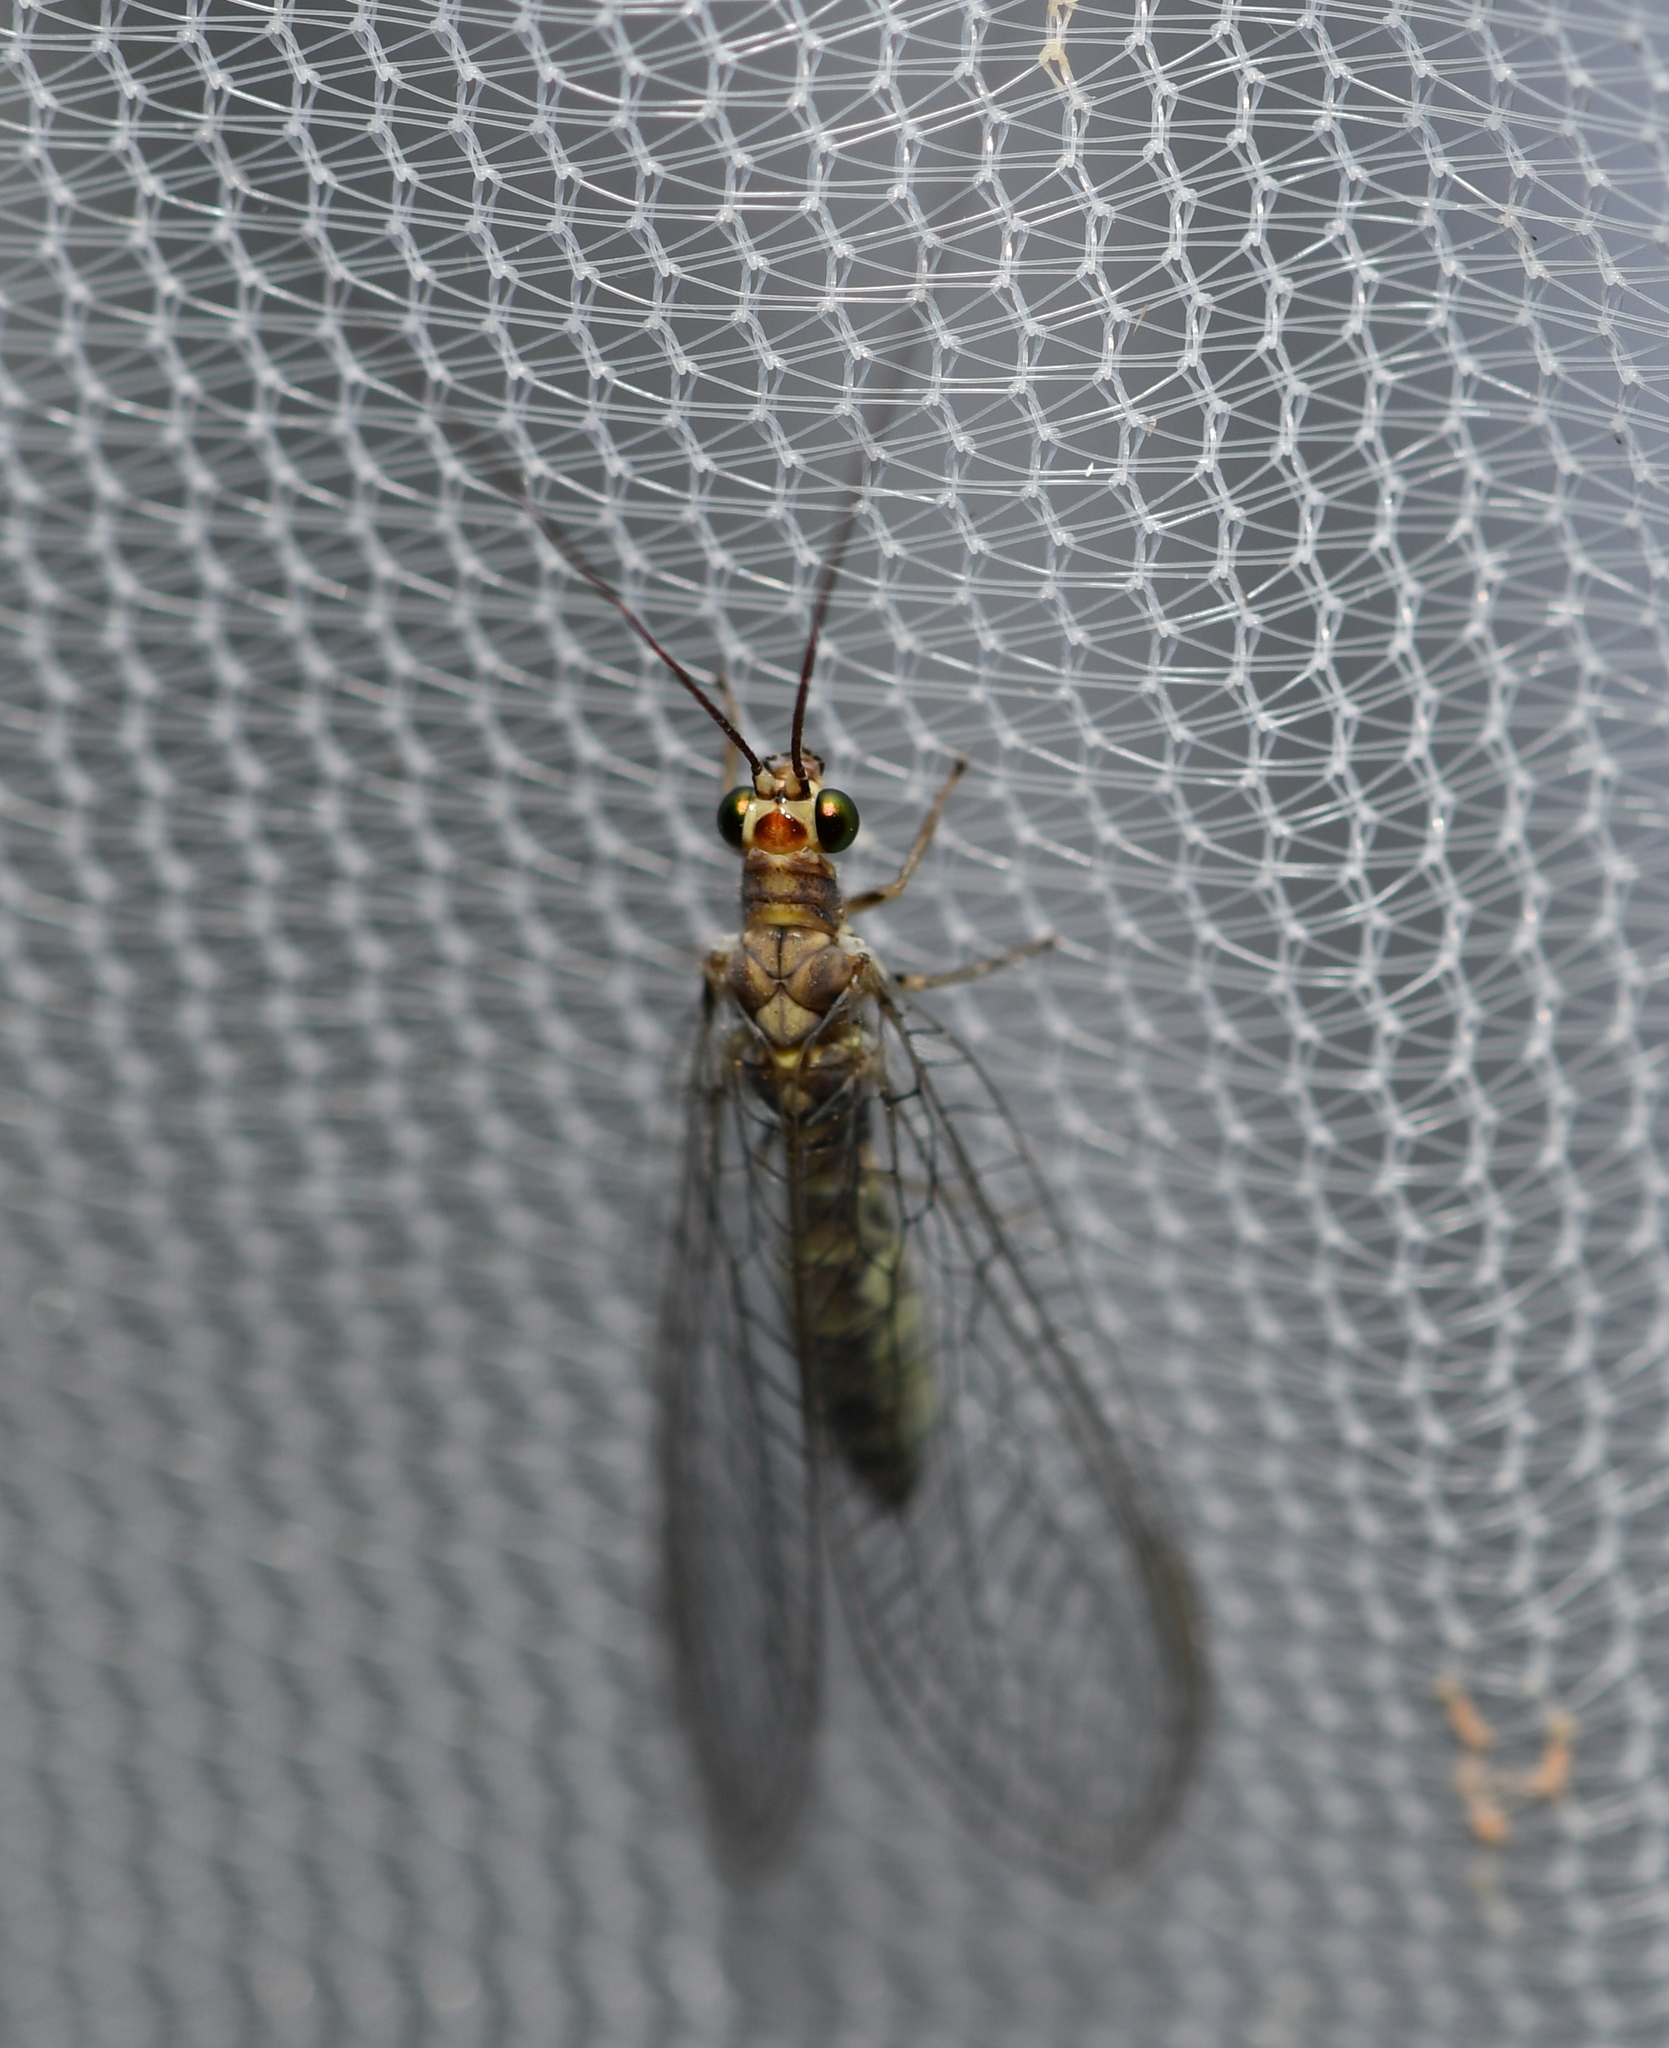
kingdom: Animalia
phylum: Arthropoda
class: Insecta
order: Neuroptera
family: Chrysopidae
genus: Yumachrysa
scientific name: Yumachrysa apache
